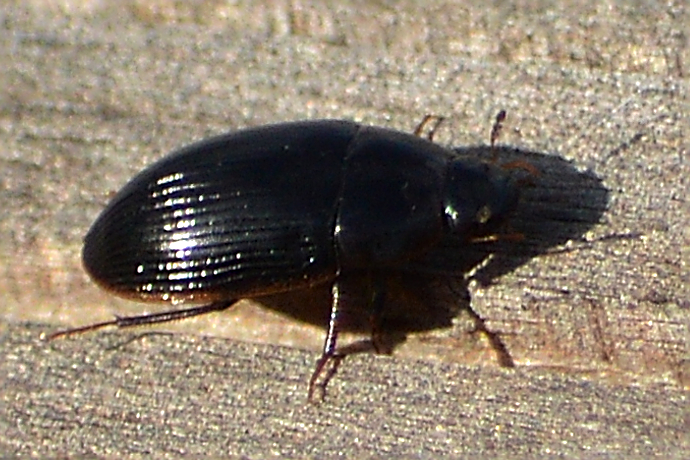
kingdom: Animalia
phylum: Arthropoda
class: Insecta
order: Coleoptera
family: Hydrophilidae
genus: Cymbiodyta
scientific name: Cymbiodyta bifida
